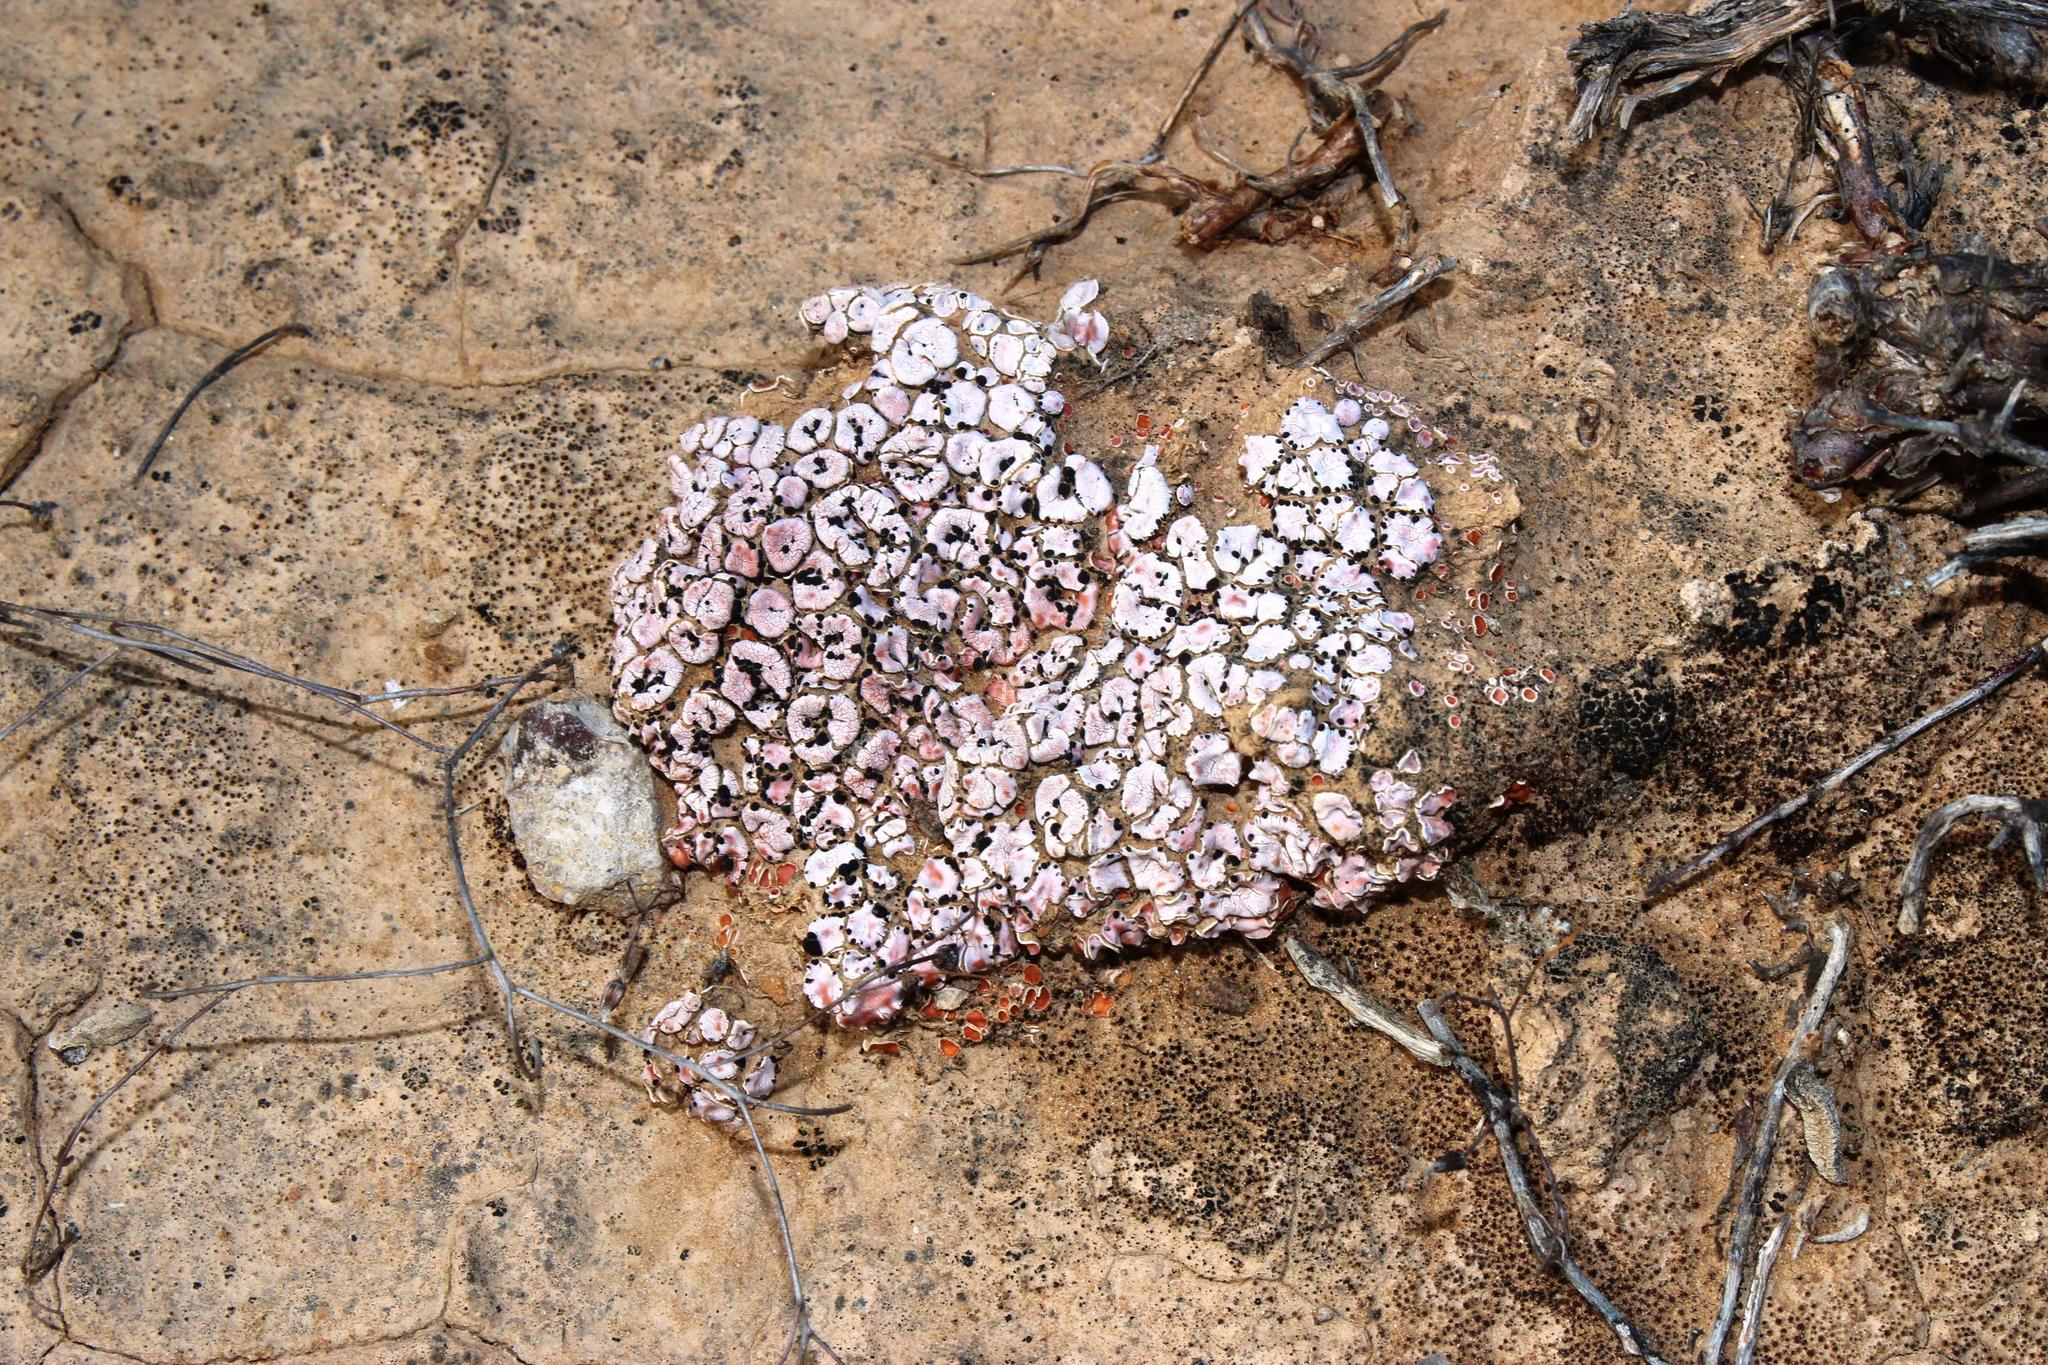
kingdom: Fungi
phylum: Ascomycota
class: Lecanoromycetes
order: Lecanorales
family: Psoraceae
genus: Psora
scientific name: Psora crenata
